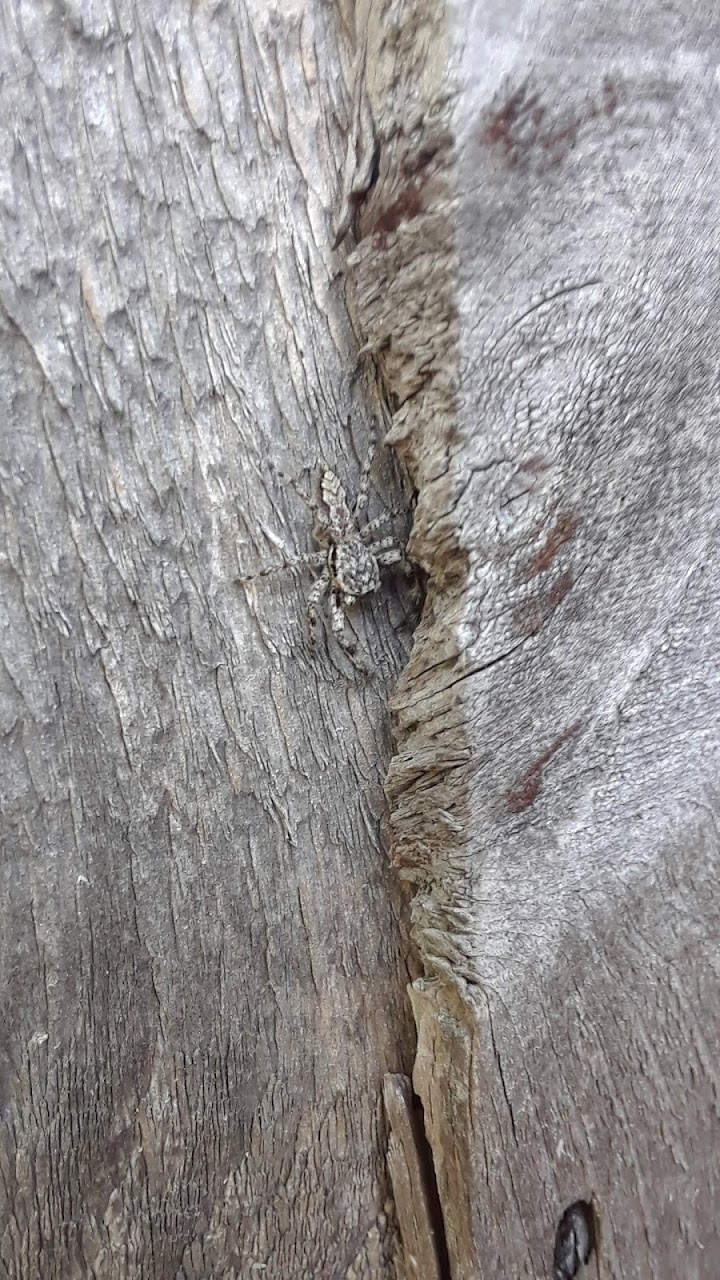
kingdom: Animalia
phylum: Arthropoda
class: Arachnida
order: Araneae
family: Salticidae
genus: Platycryptus
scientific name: Platycryptus undatus
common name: Tan jumping spider
